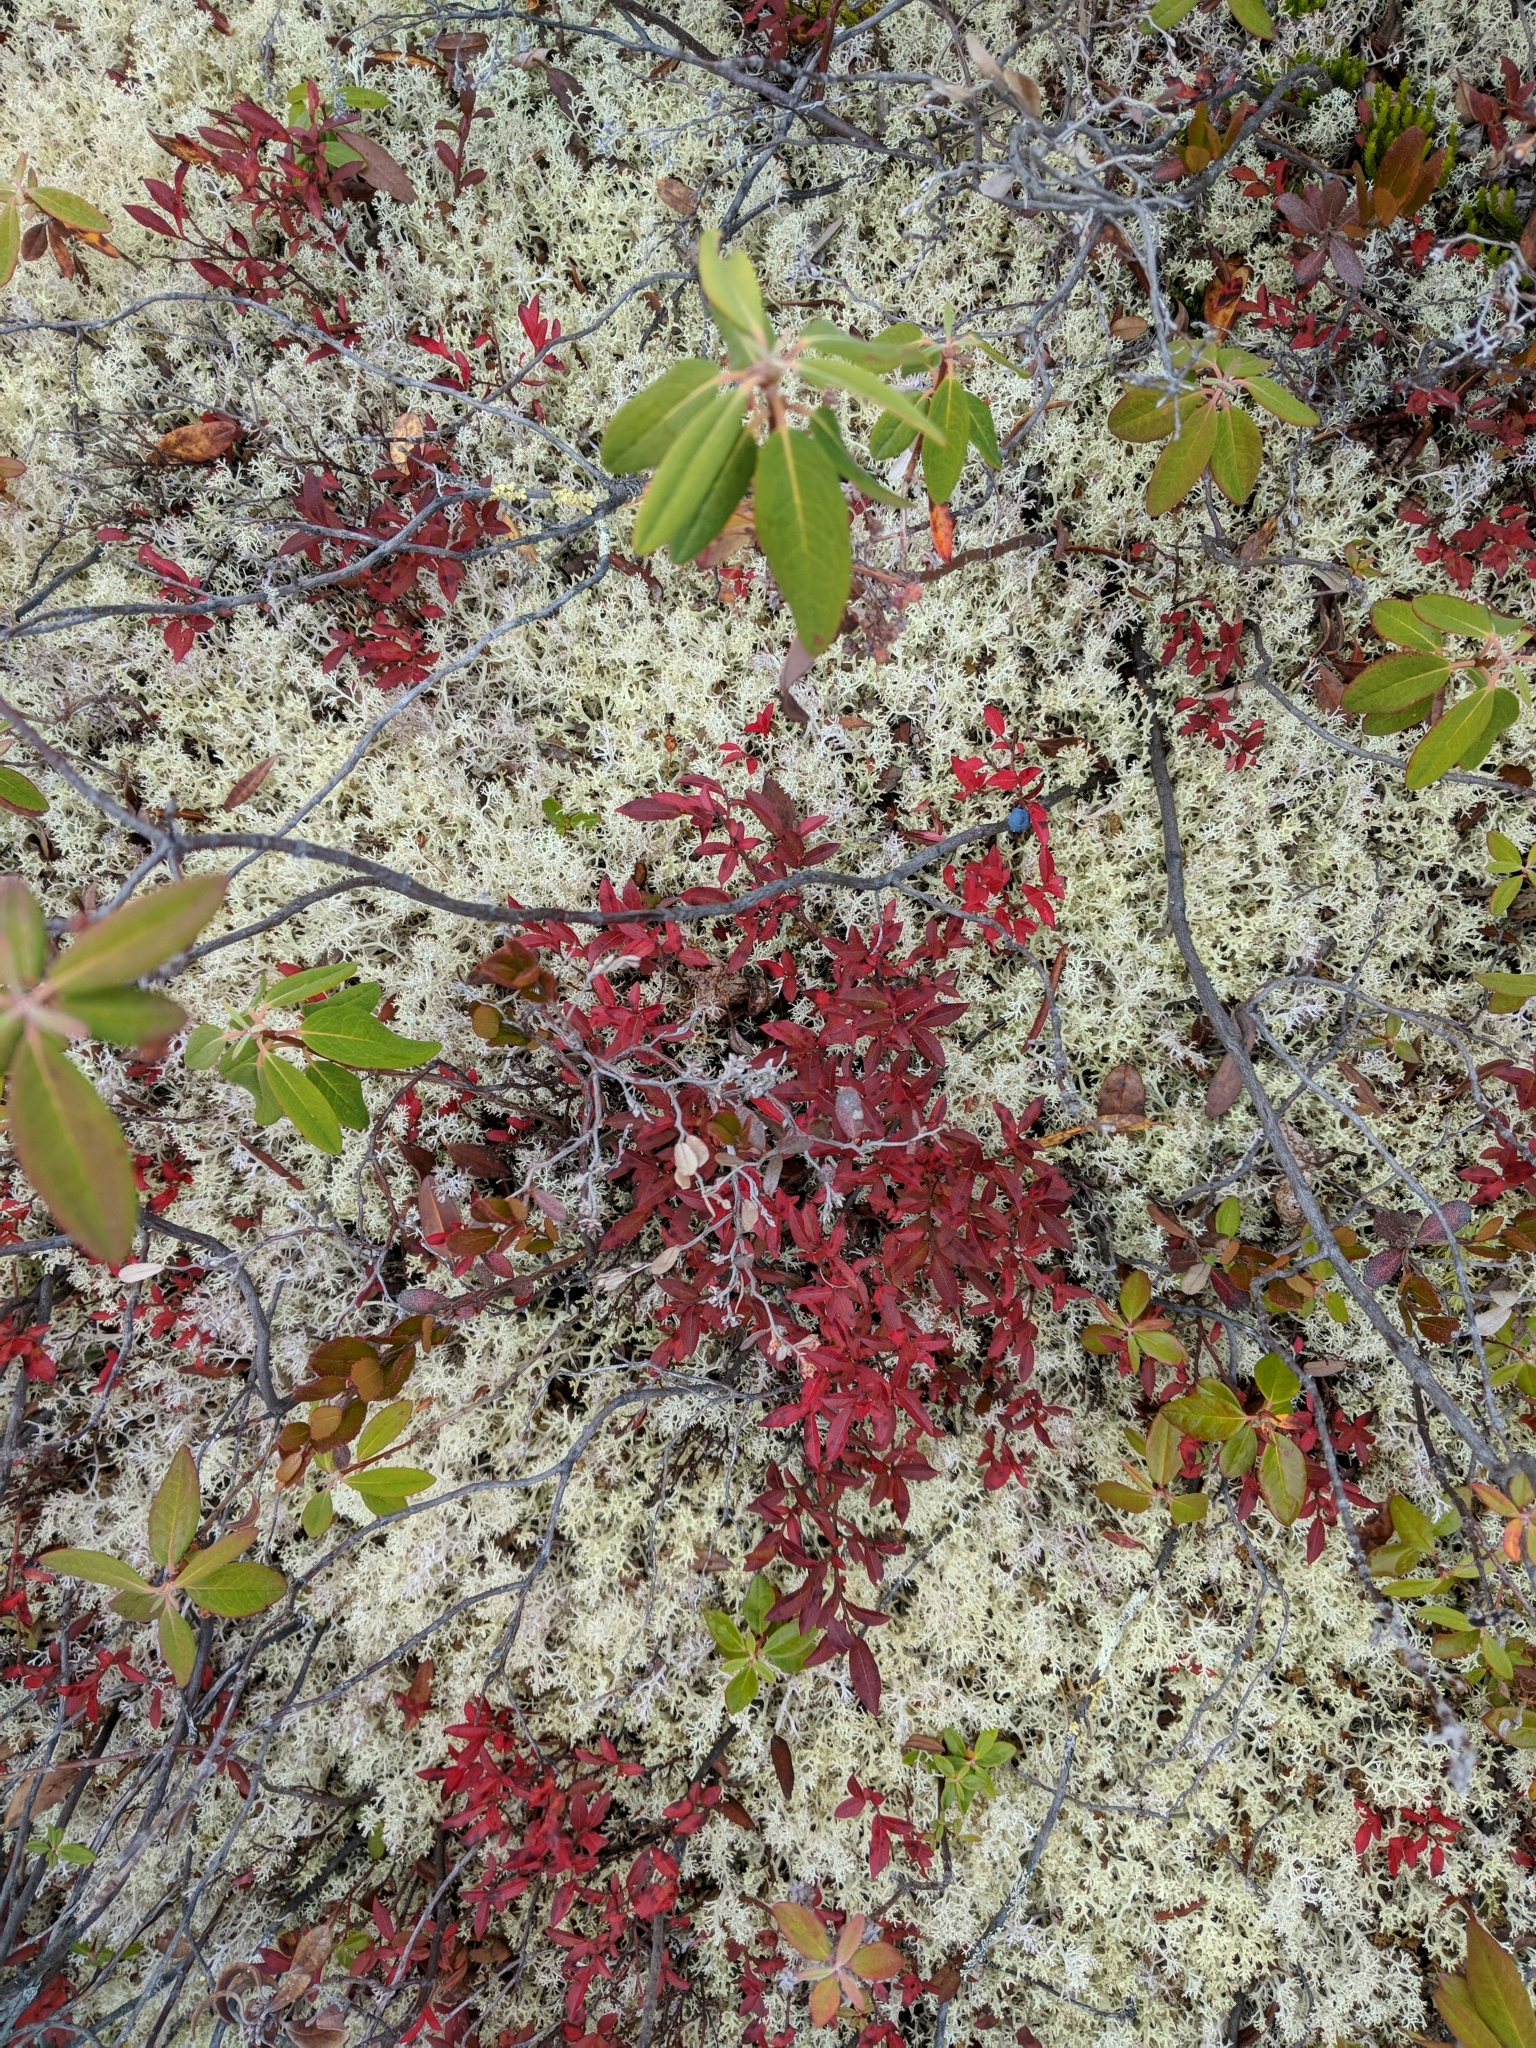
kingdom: Plantae
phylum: Tracheophyta
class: Magnoliopsida
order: Ericales
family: Ericaceae
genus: Vaccinium
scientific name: Vaccinium boreale
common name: Northern blueberry
